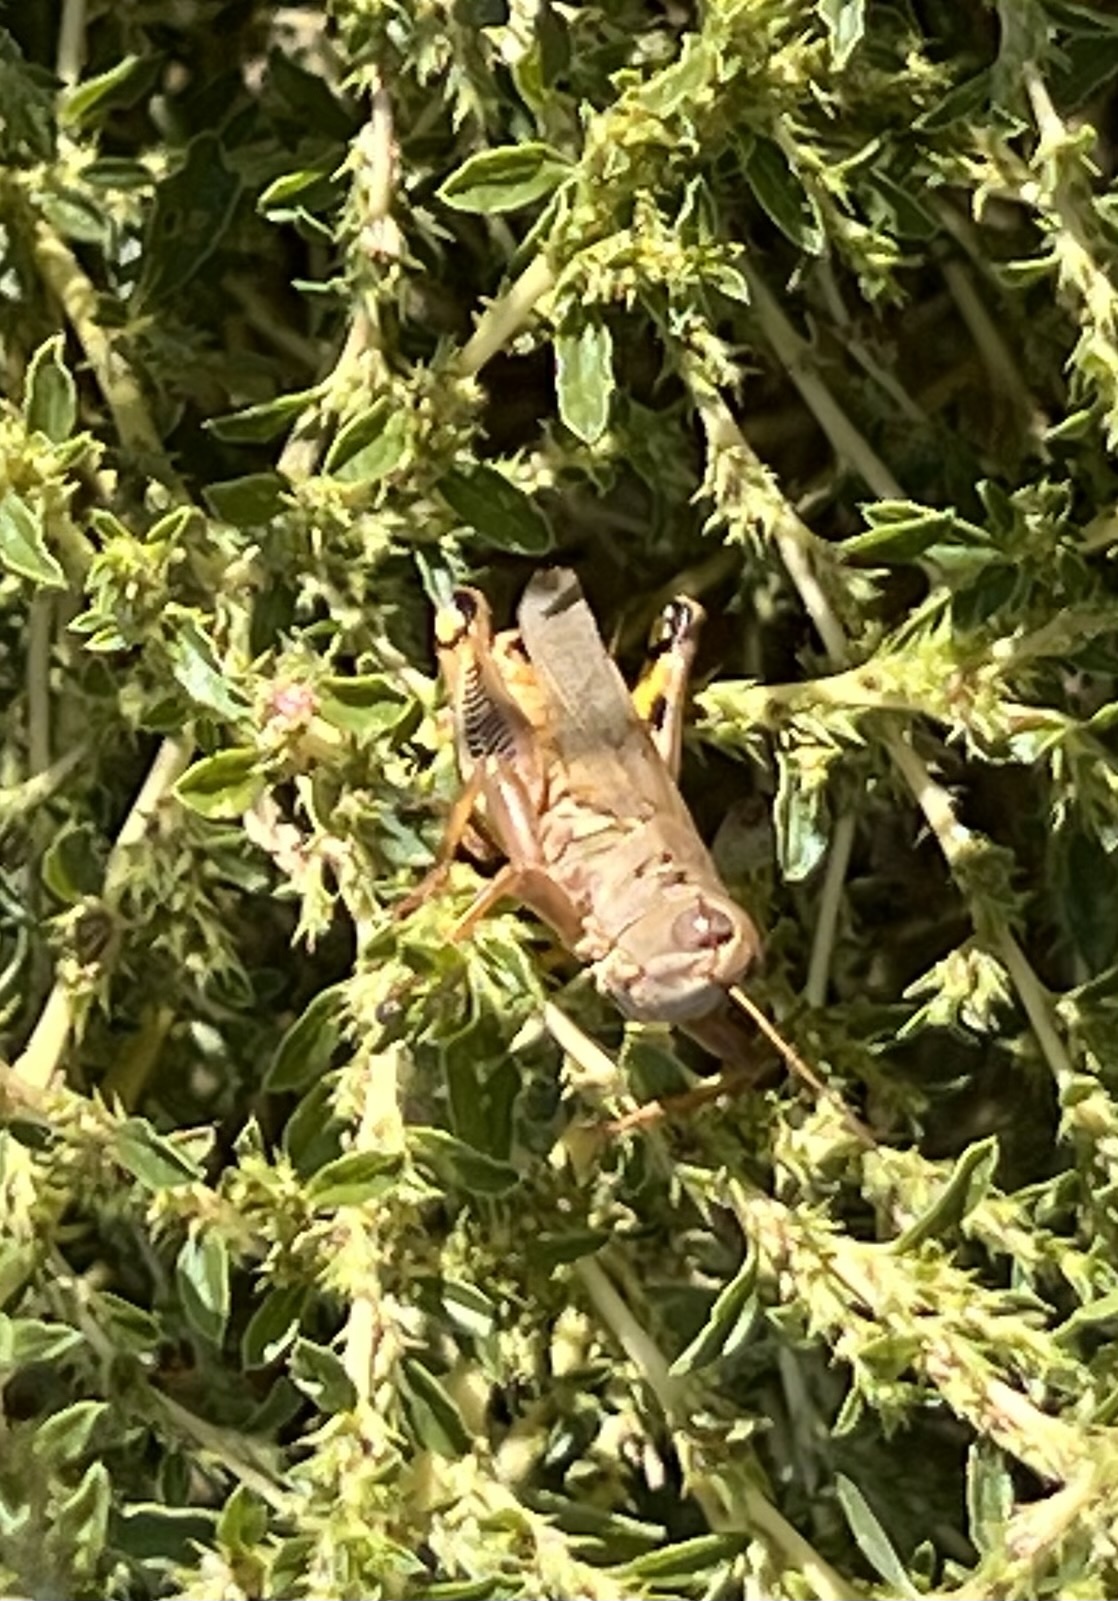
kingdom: Animalia
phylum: Arthropoda
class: Insecta
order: Orthoptera
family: Acrididae
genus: Melanoplus
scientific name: Melanoplus differentialis
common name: Differential grasshopper
